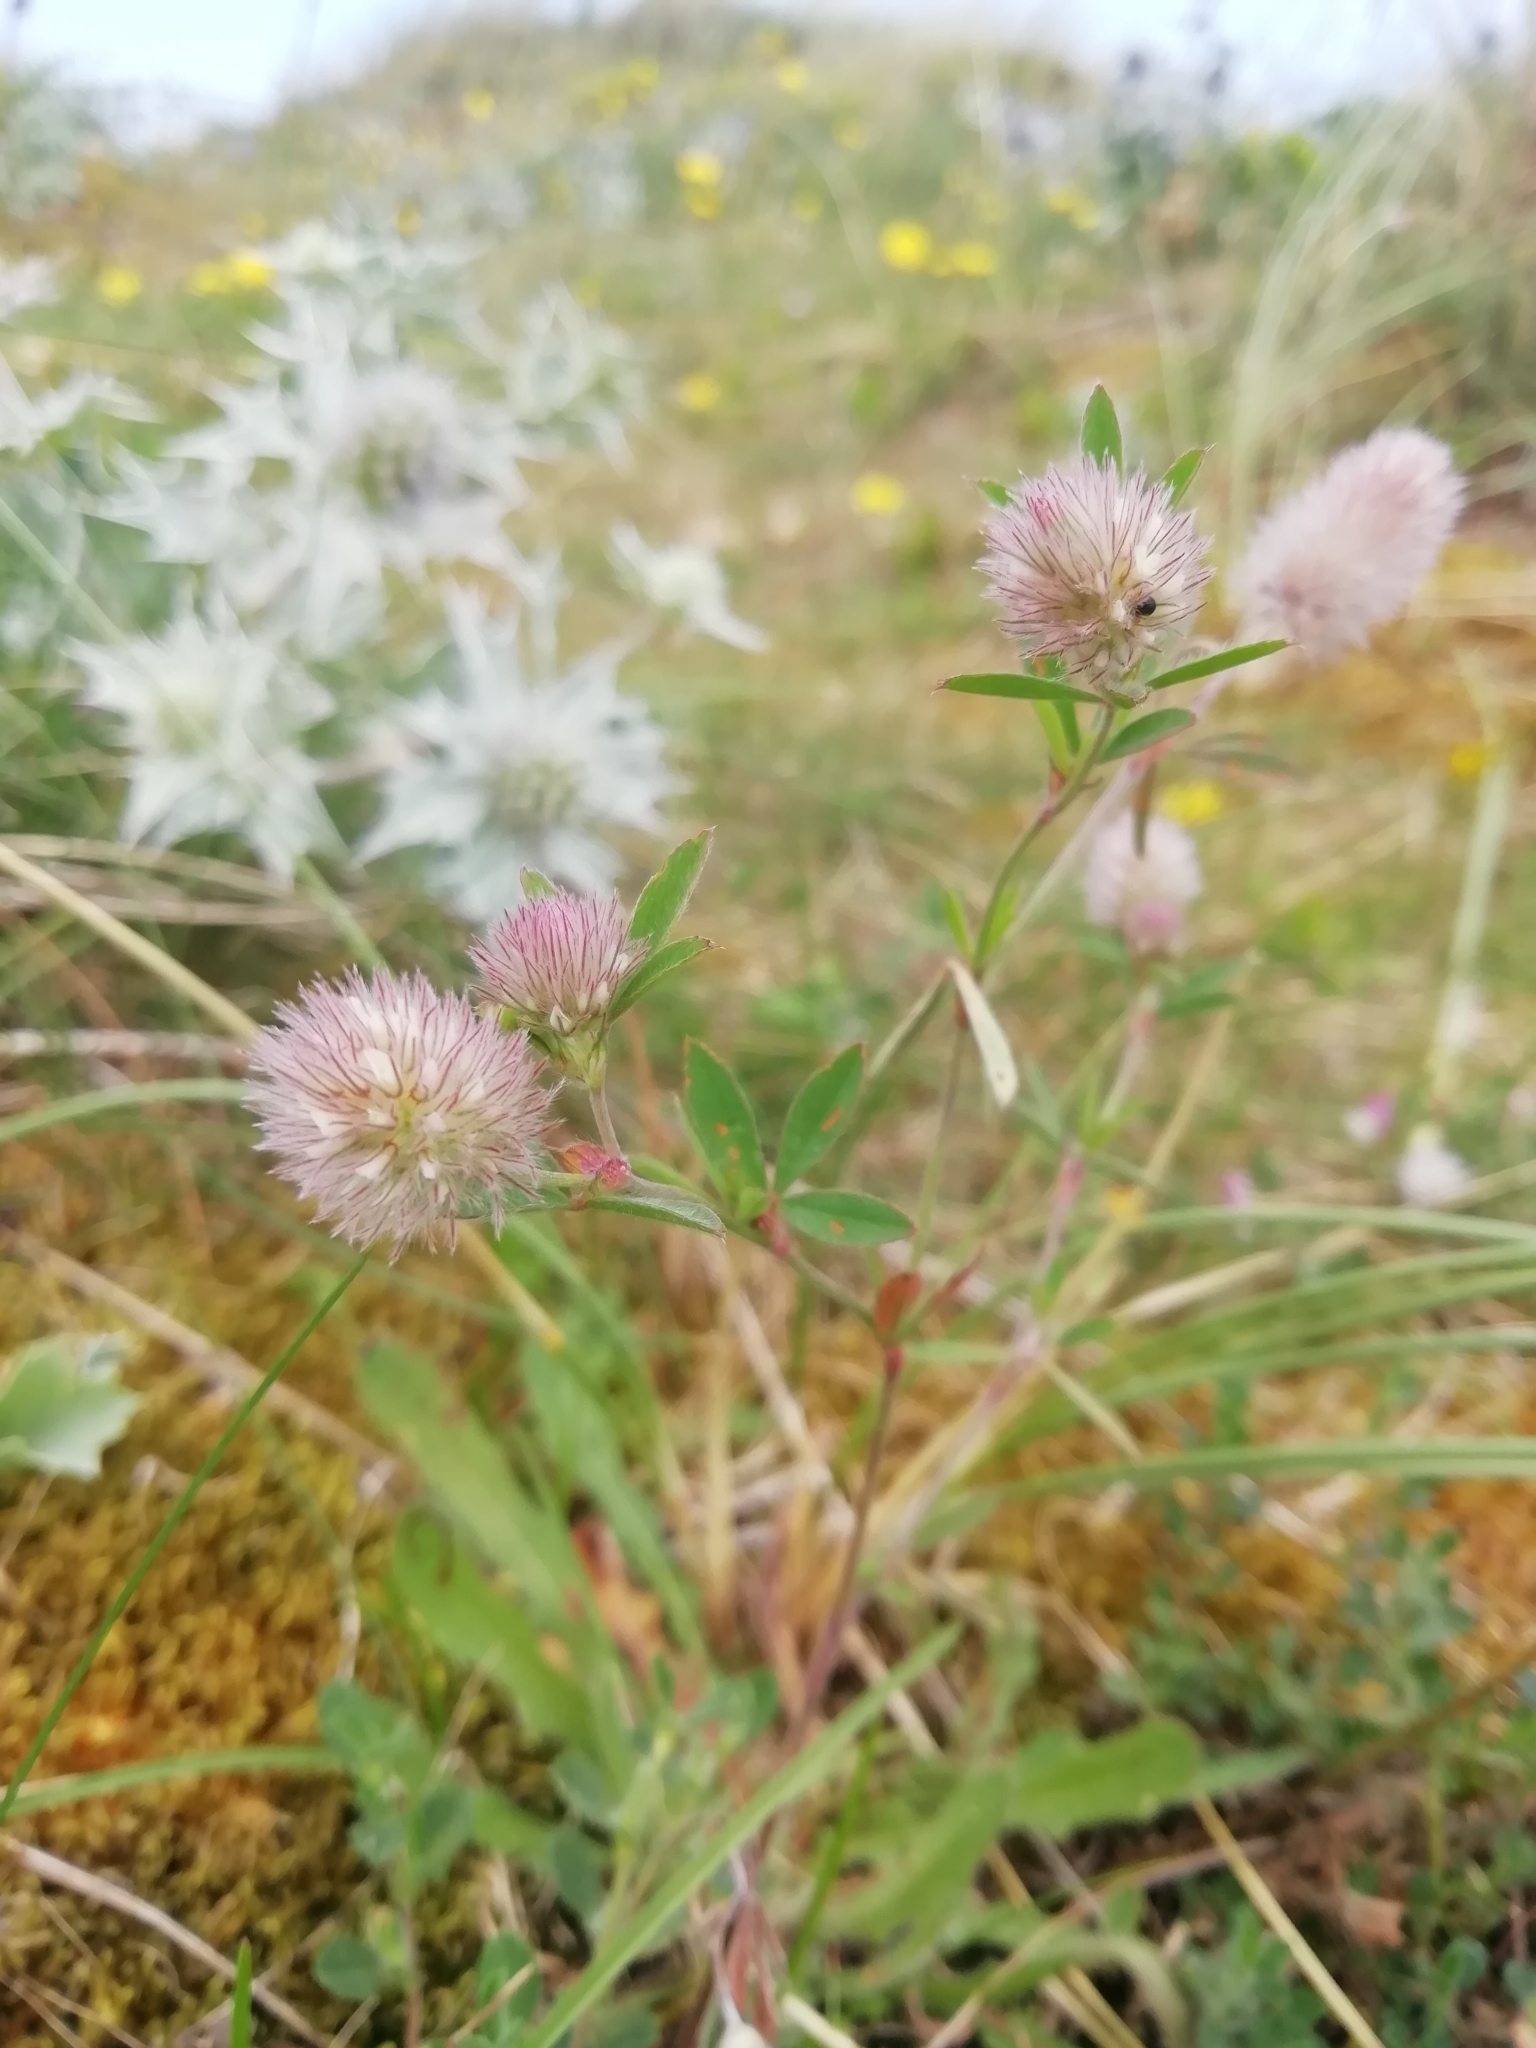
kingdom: Plantae
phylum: Tracheophyta
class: Magnoliopsida
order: Fabales
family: Fabaceae
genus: Trifolium
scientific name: Trifolium arvense
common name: Hare's-foot clover
